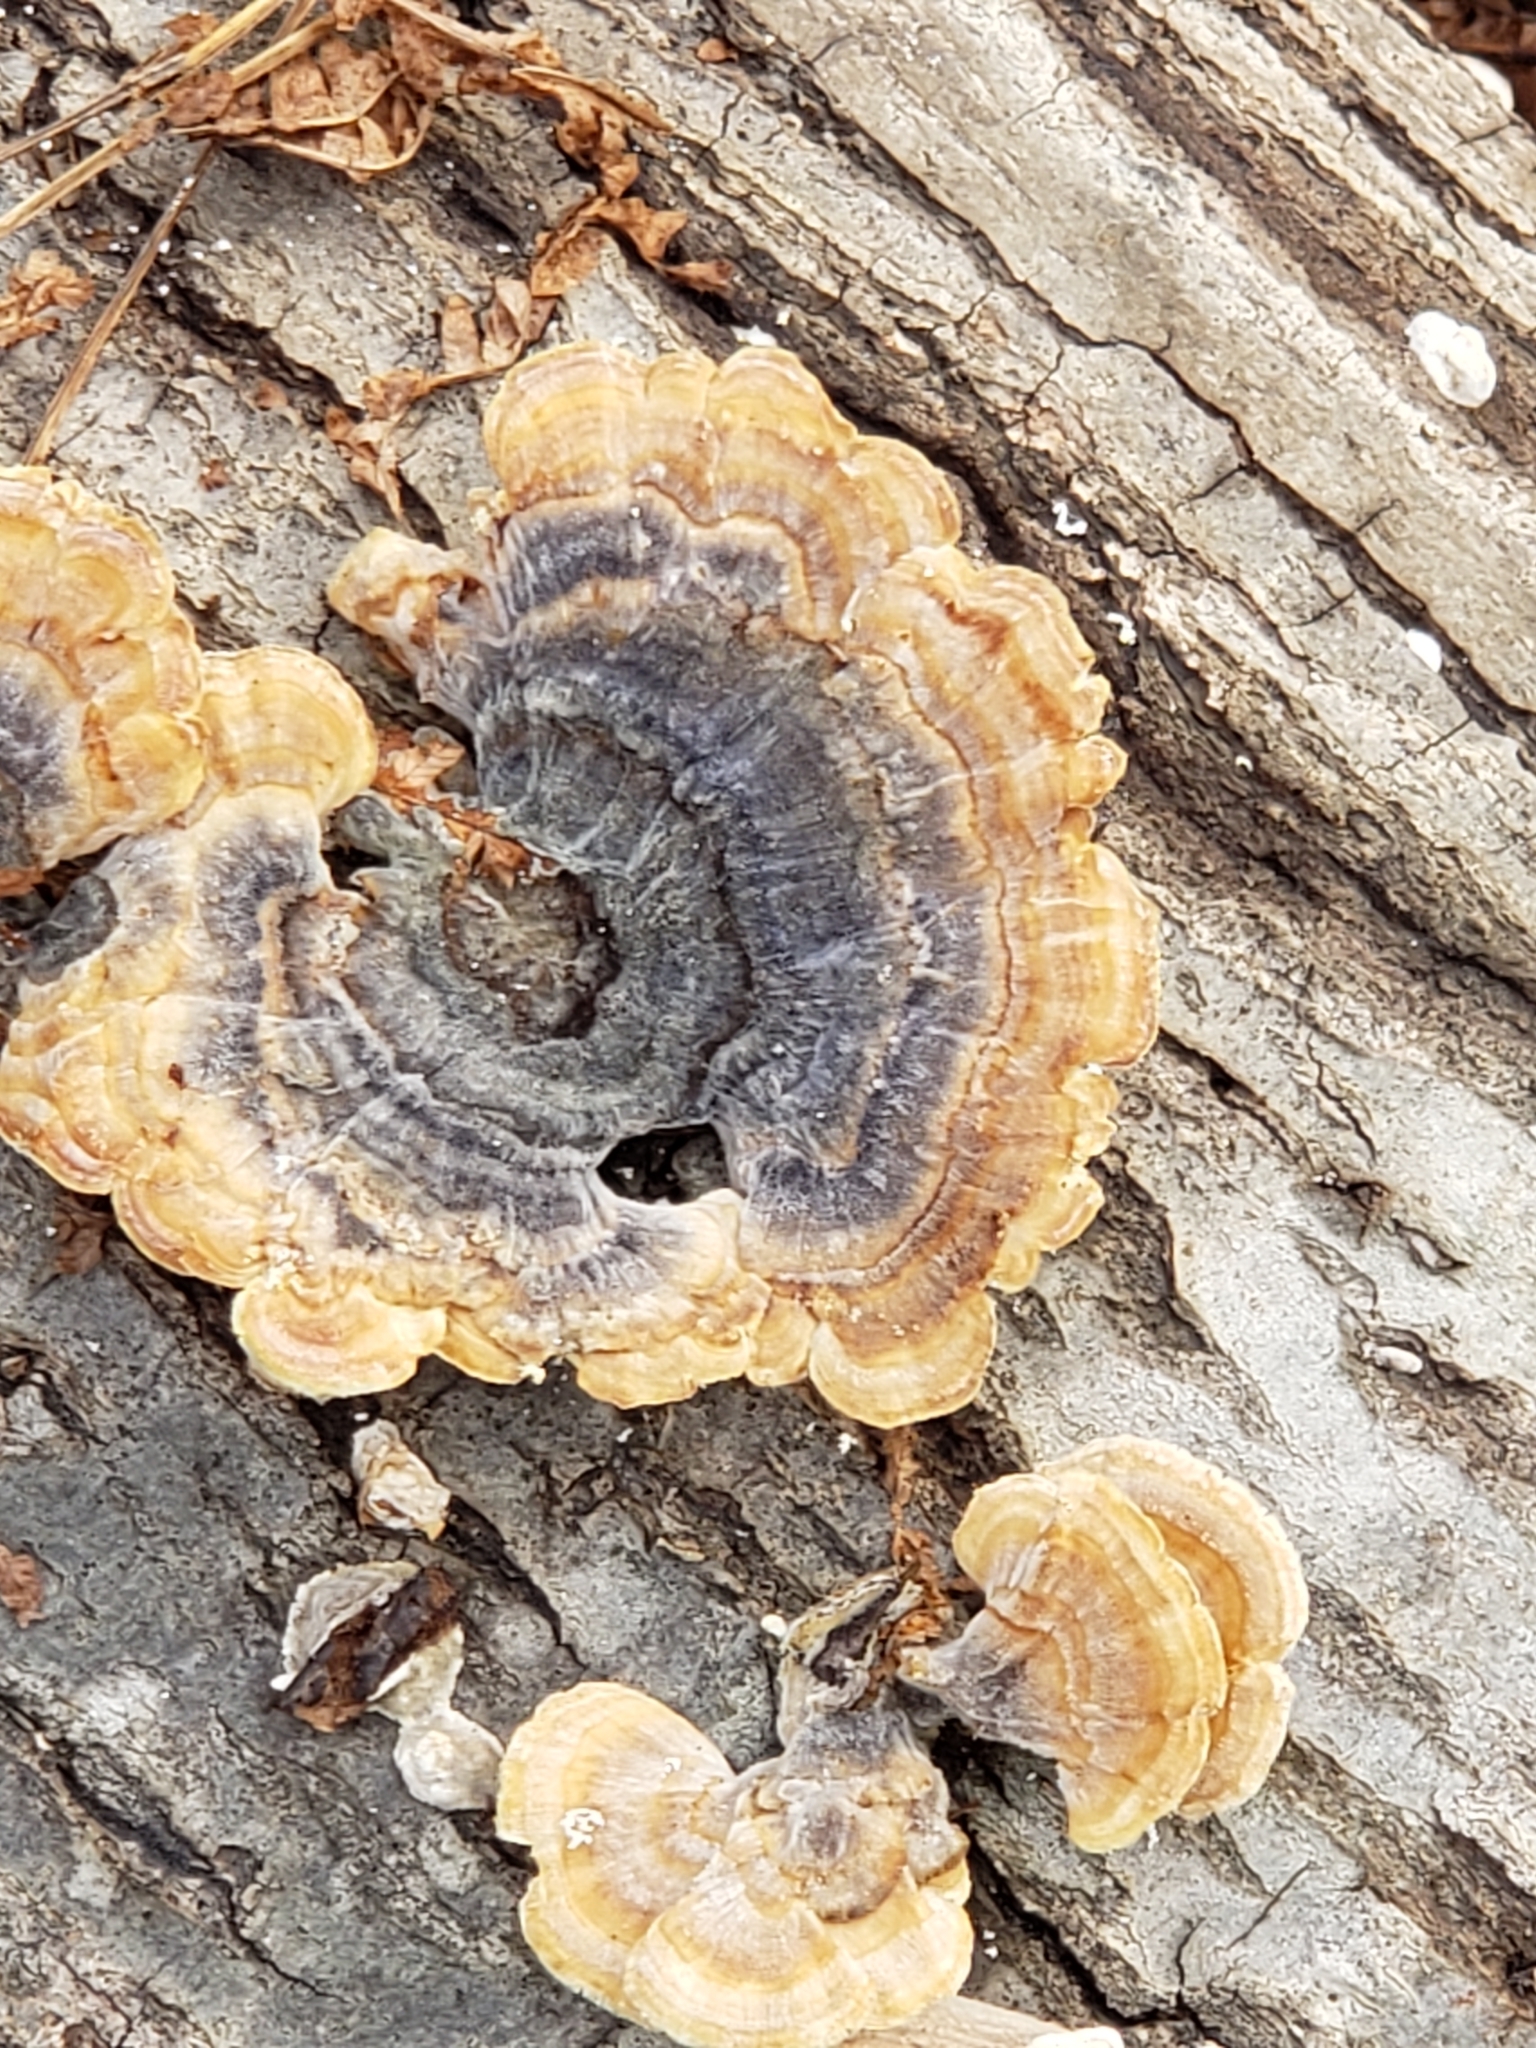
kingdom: Fungi
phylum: Basidiomycota
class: Agaricomycetes
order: Polyporales
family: Polyporaceae
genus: Trametes
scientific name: Trametes versicolor
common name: Turkeytail
